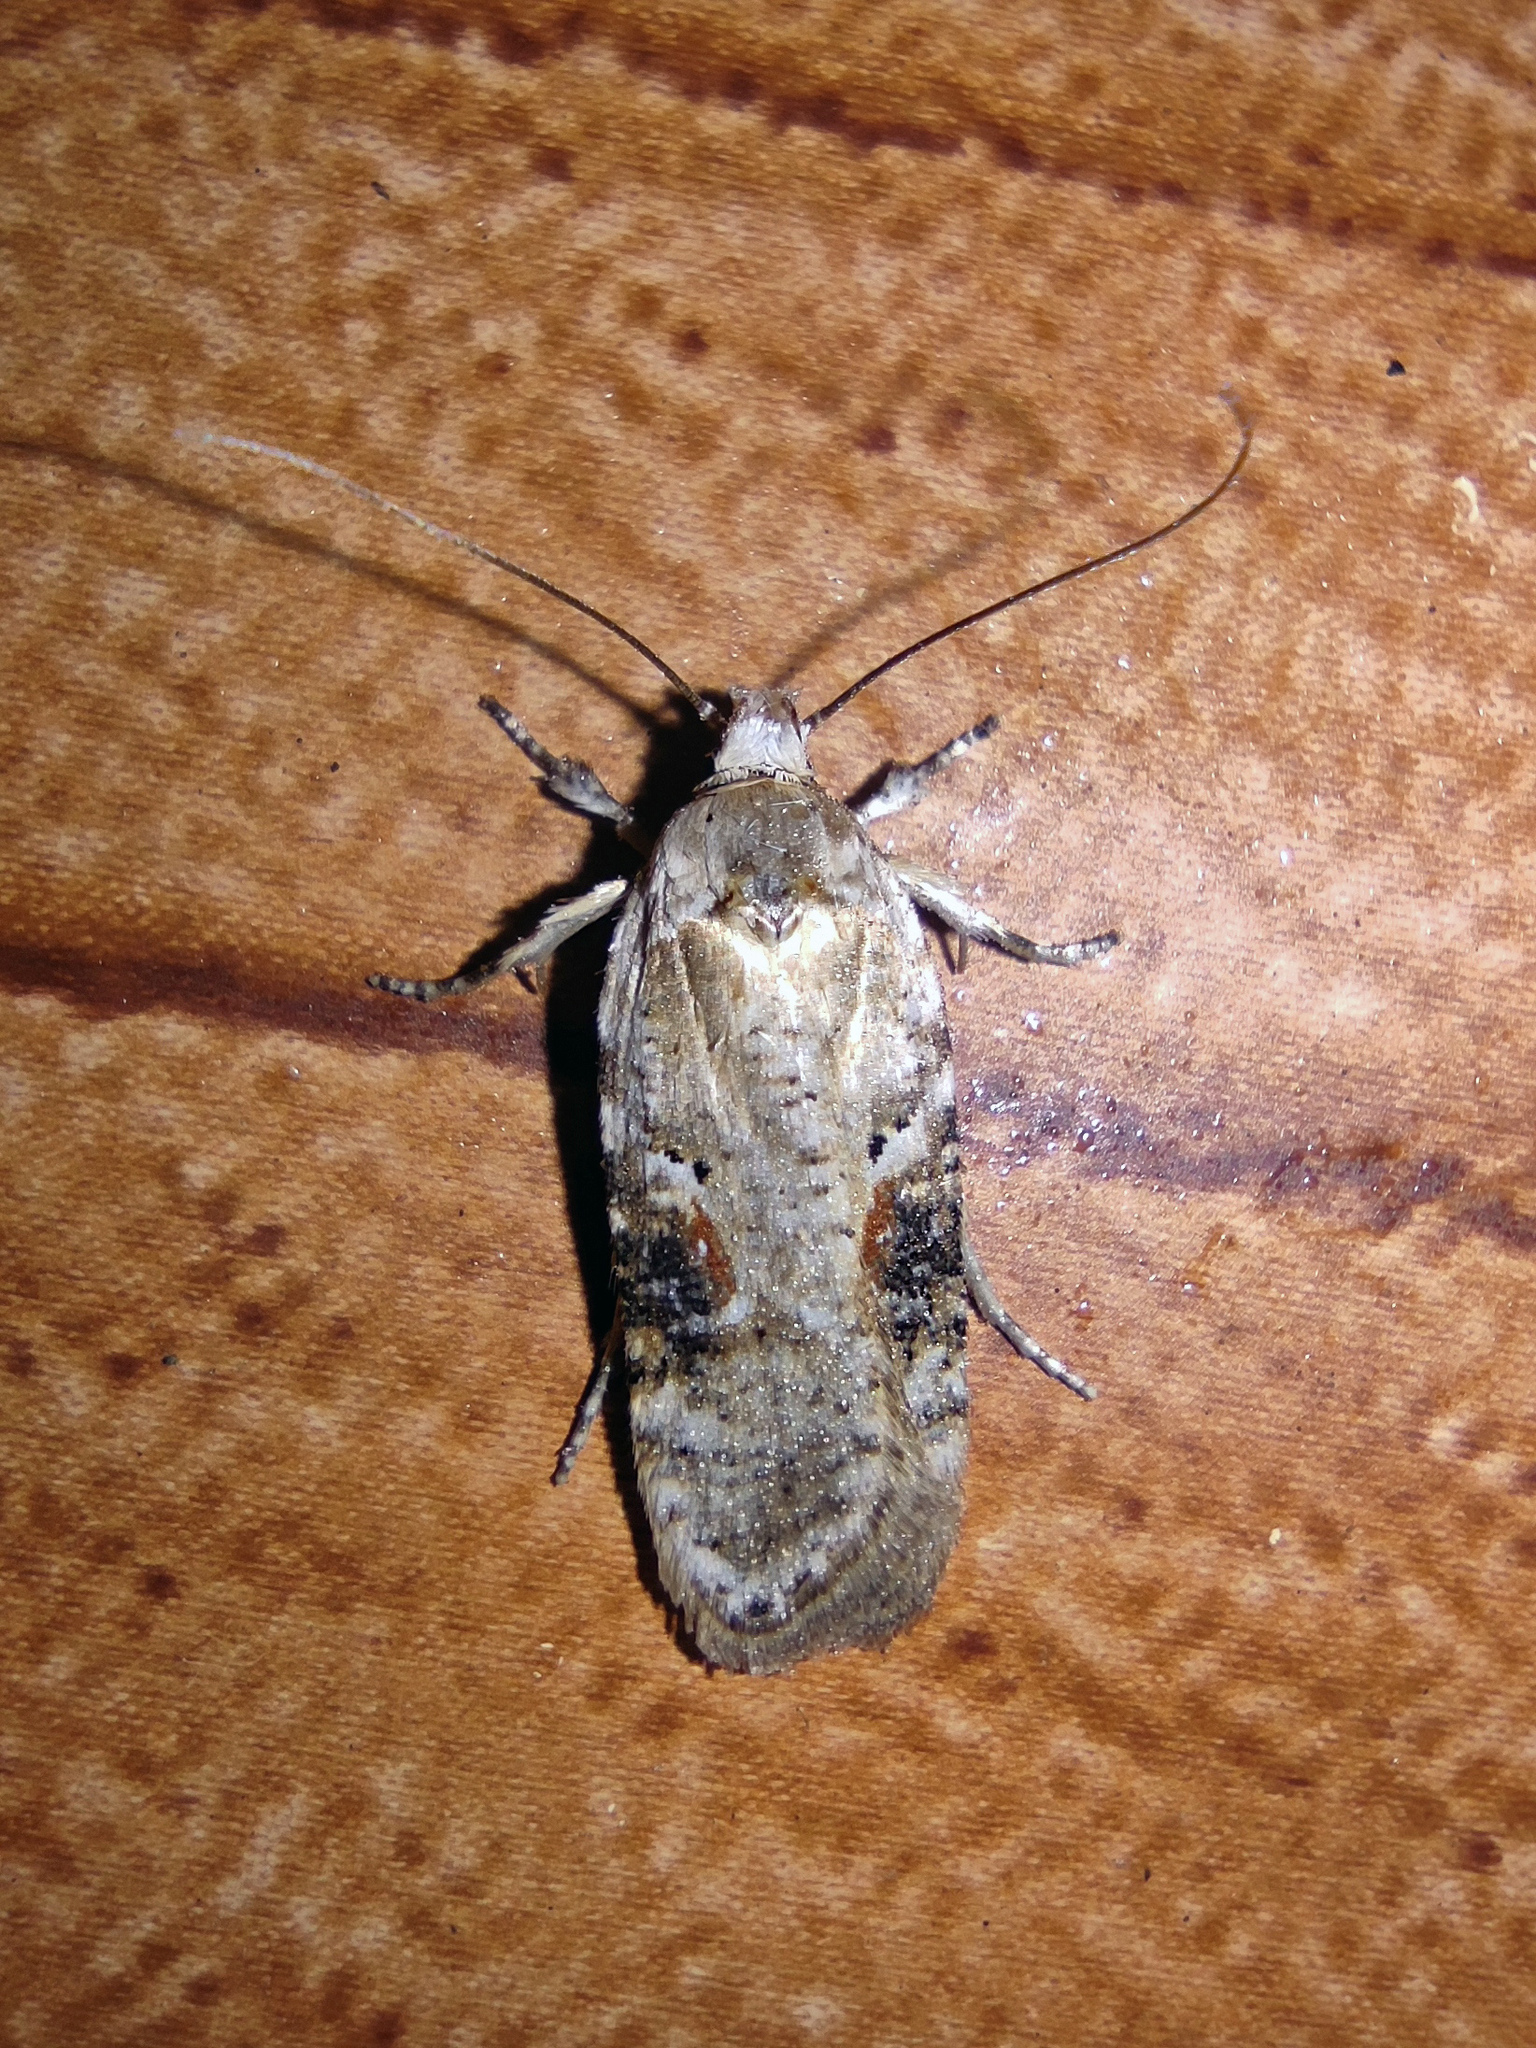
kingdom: Animalia
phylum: Arthropoda
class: Insecta
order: Lepidoptera
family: Depressariidae
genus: Agonopterix
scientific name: Agonopterix alstroemeriana
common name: Moth
